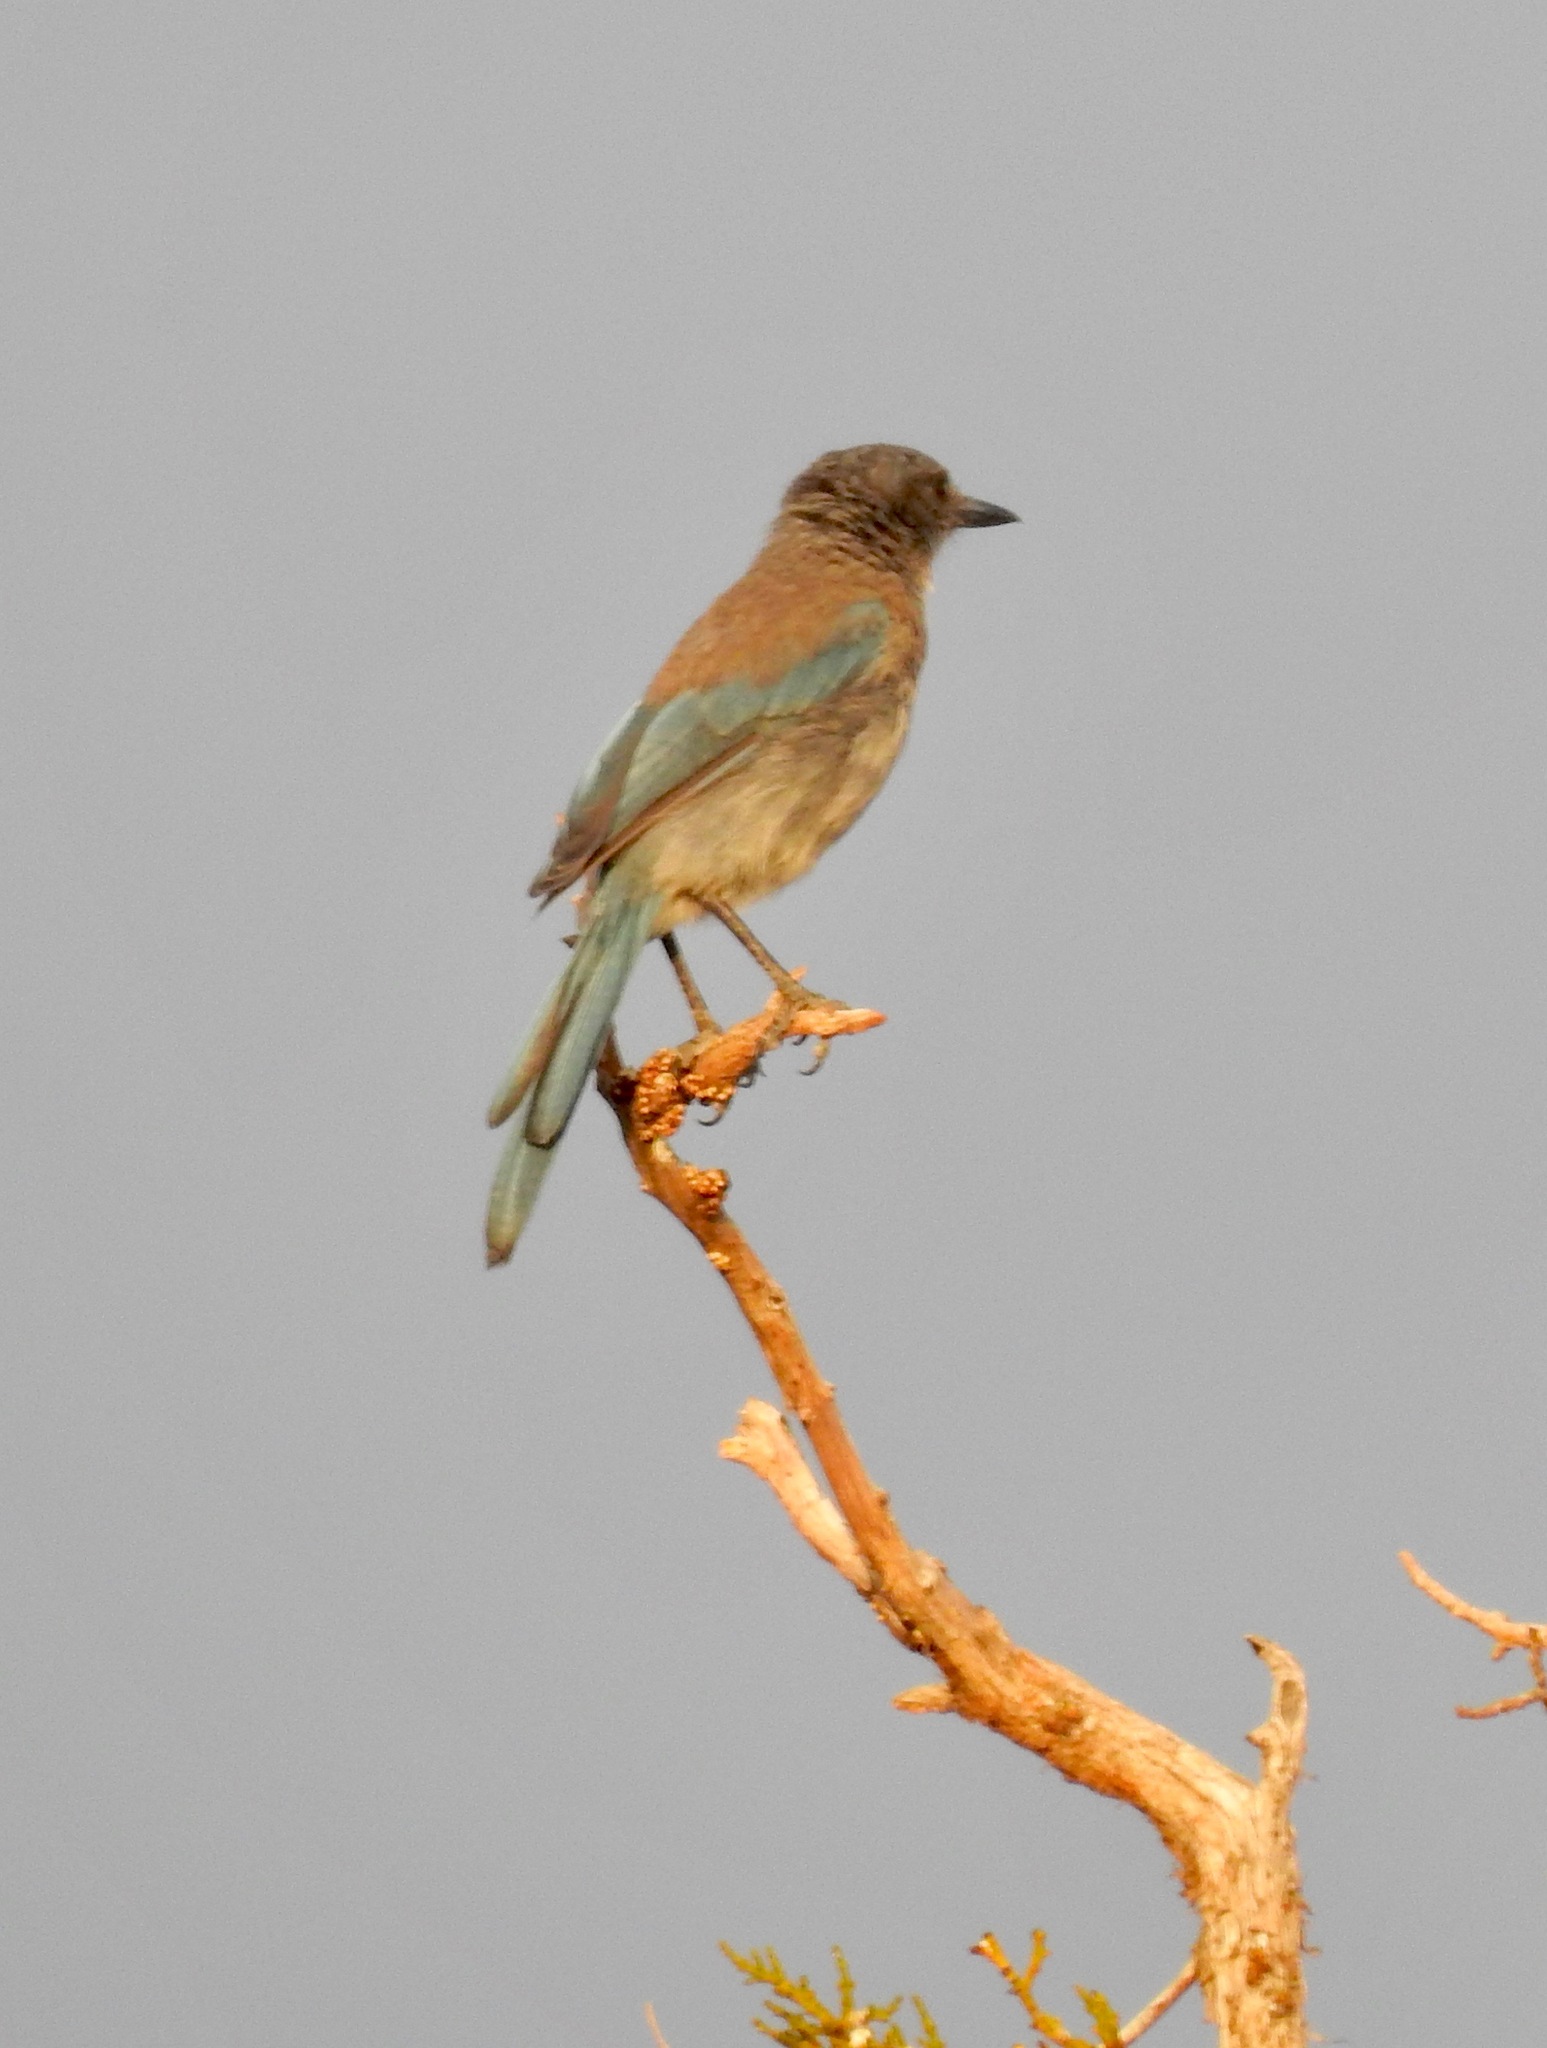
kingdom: Animalia
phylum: Chordata
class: Aves
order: Passeriformes
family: Corvidae
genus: Aphelocoma
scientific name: Aphelocoma woodhouseii
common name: Woodhouse's scrub-jay
